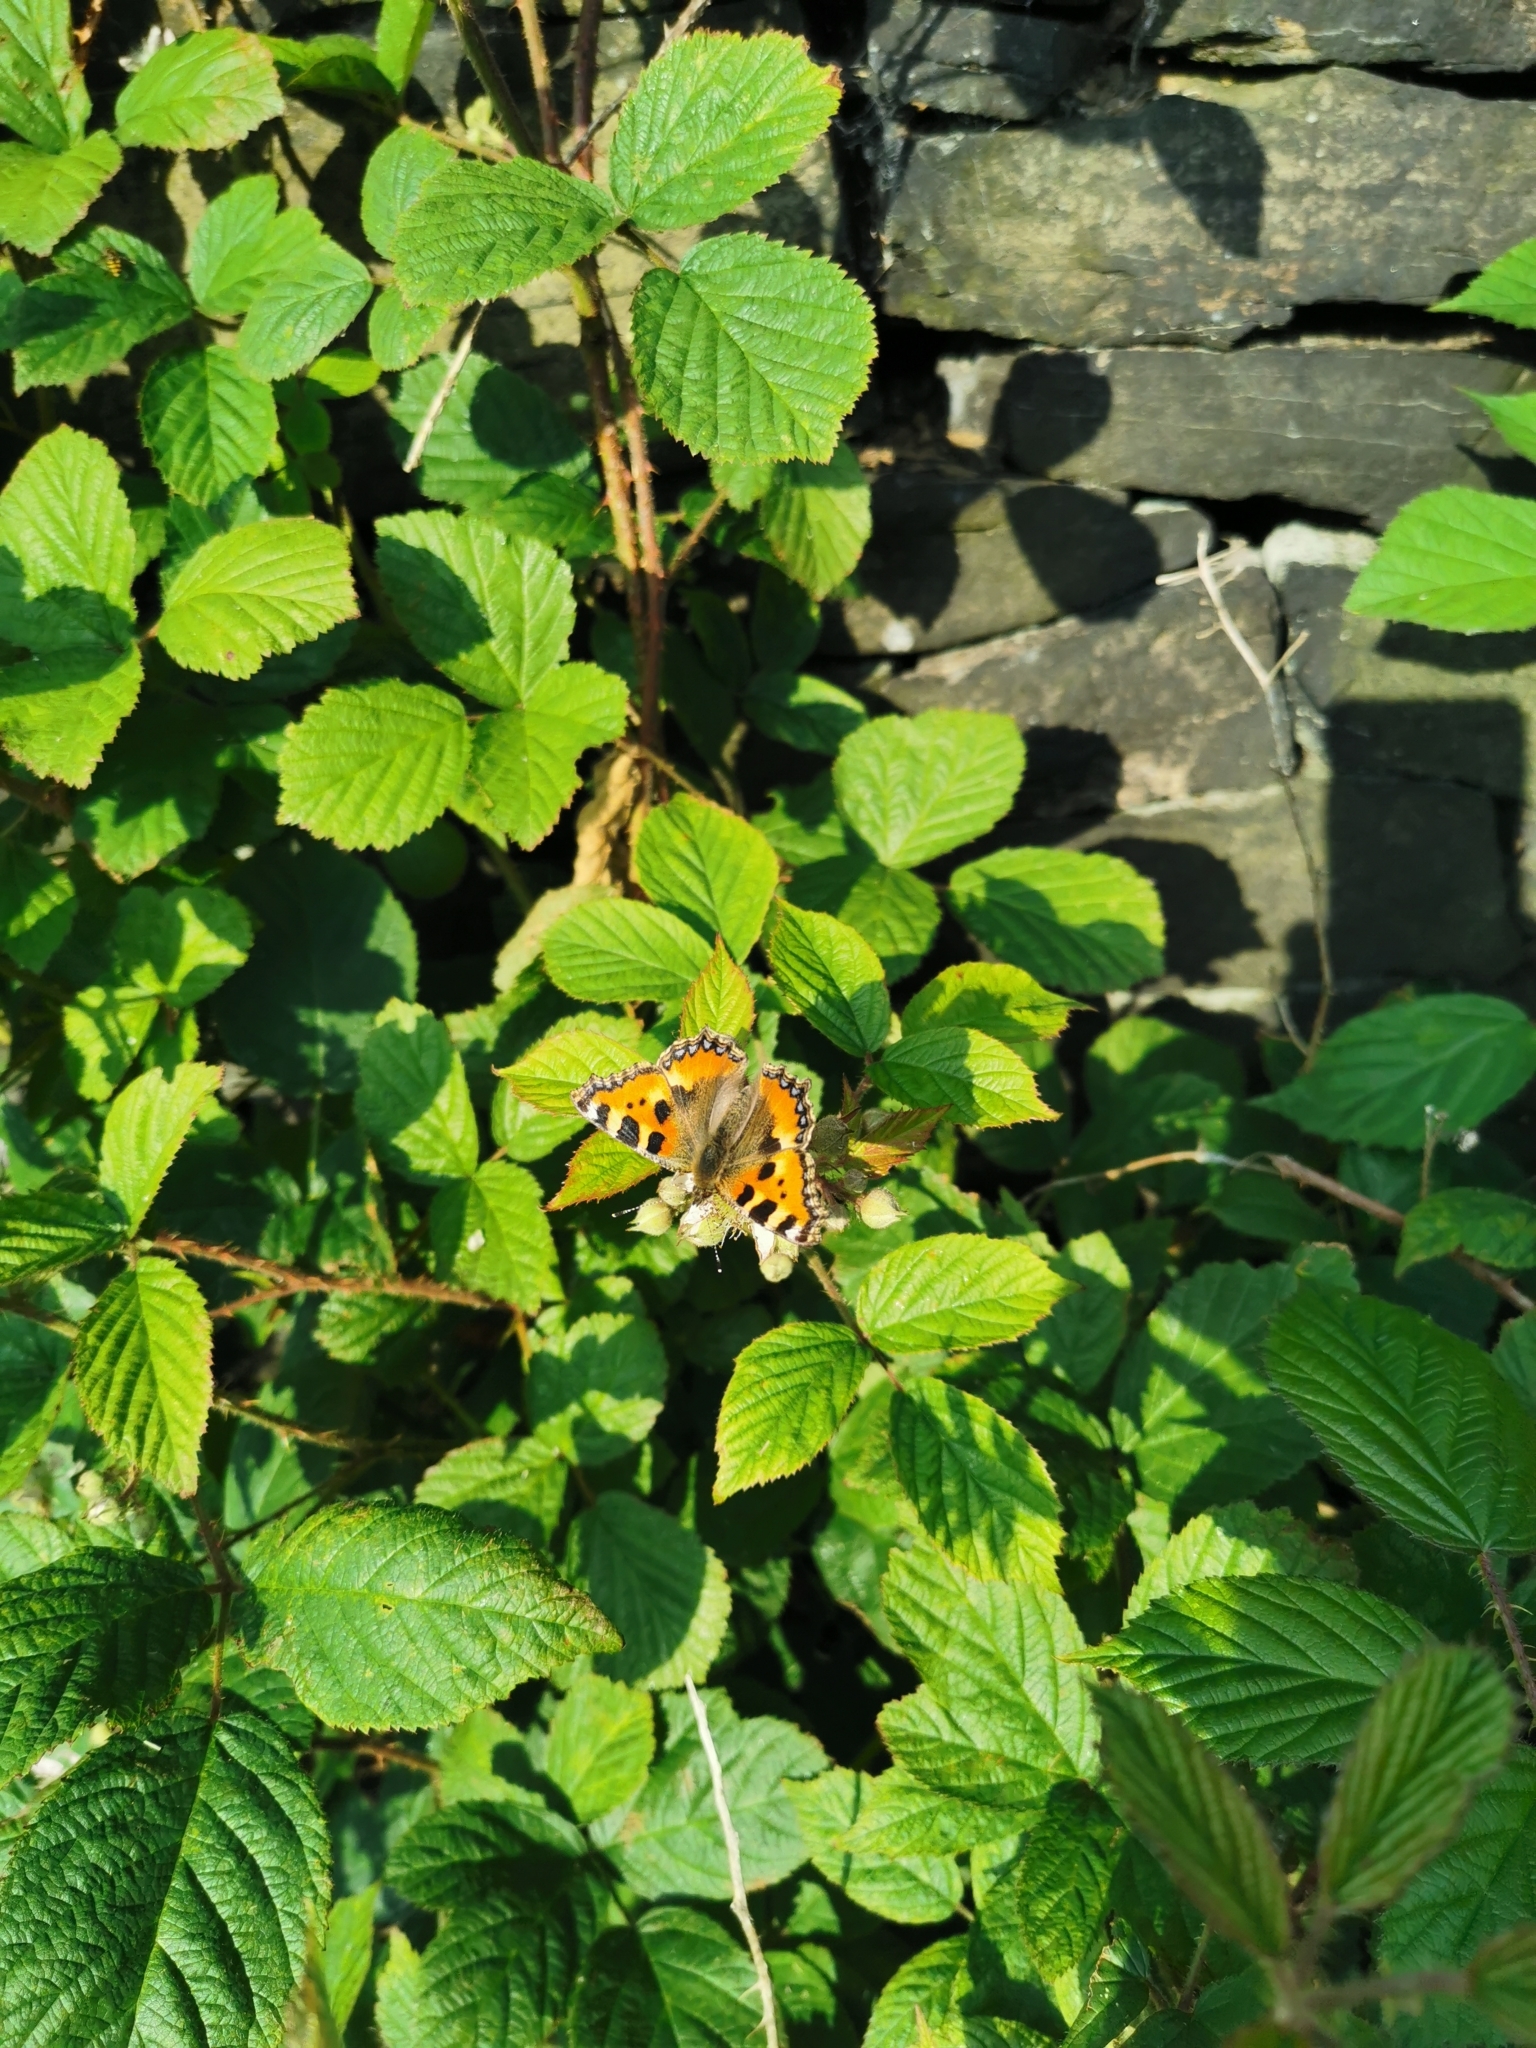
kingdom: Animalia
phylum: Arthropoda
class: Insecta
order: Lepidoptera
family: Nymphalidae
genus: Aglais
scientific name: Aglais urticae
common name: Small tortoiseshell
